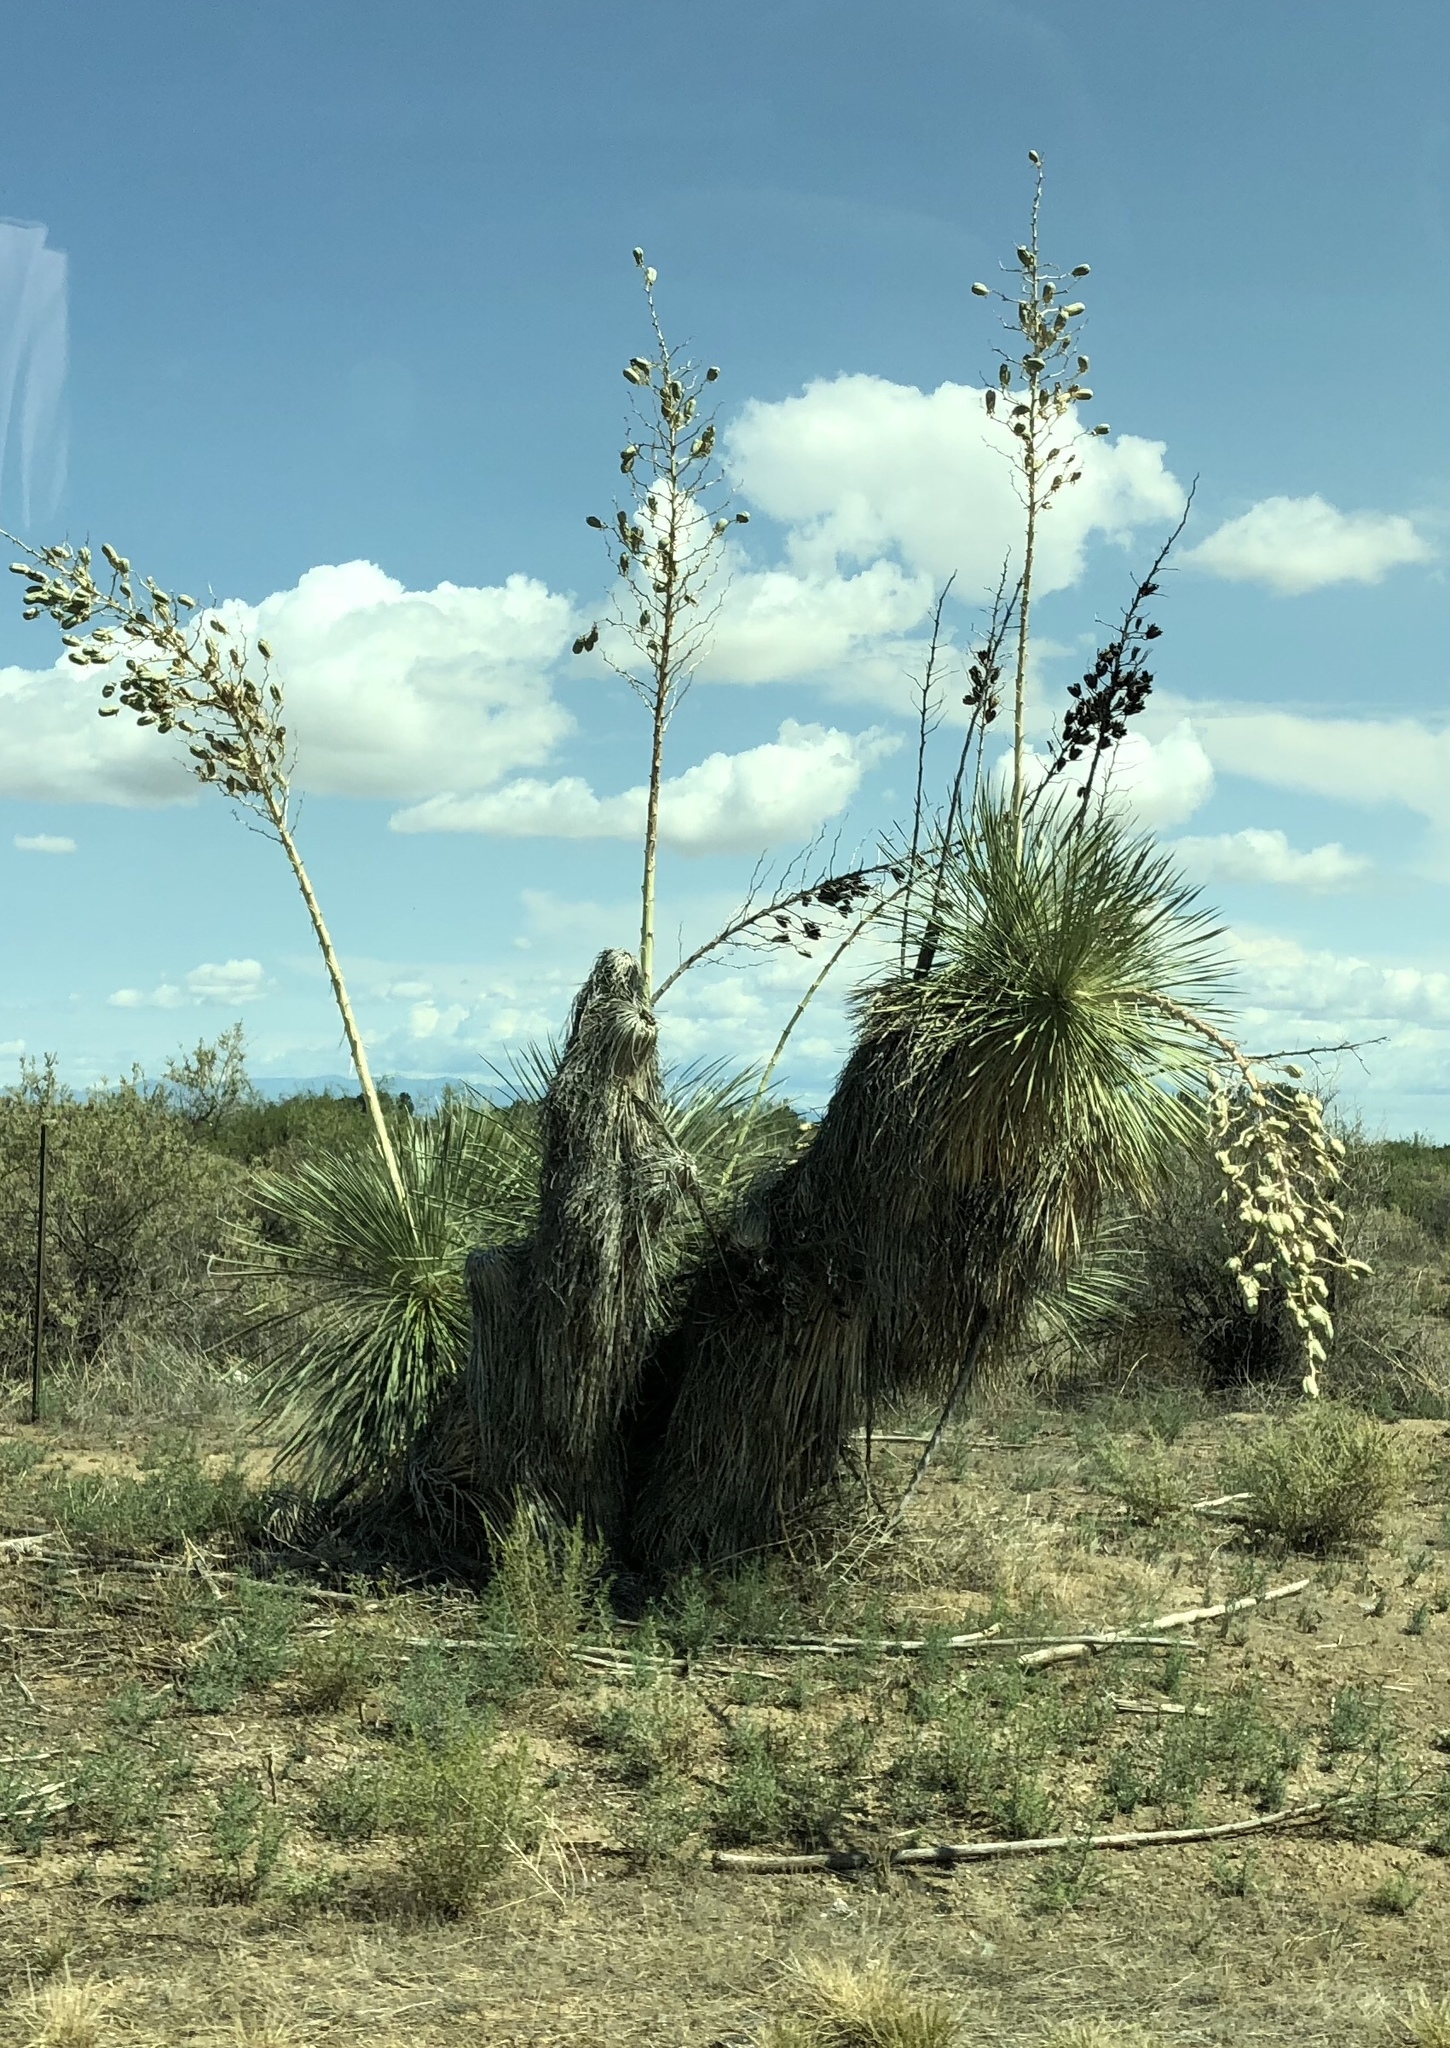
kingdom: Plantae
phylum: Tracheophyta
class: Liliopsida
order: Asparagales
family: Asparagaceae
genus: Yucca
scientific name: Yucca elata
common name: Palmella
